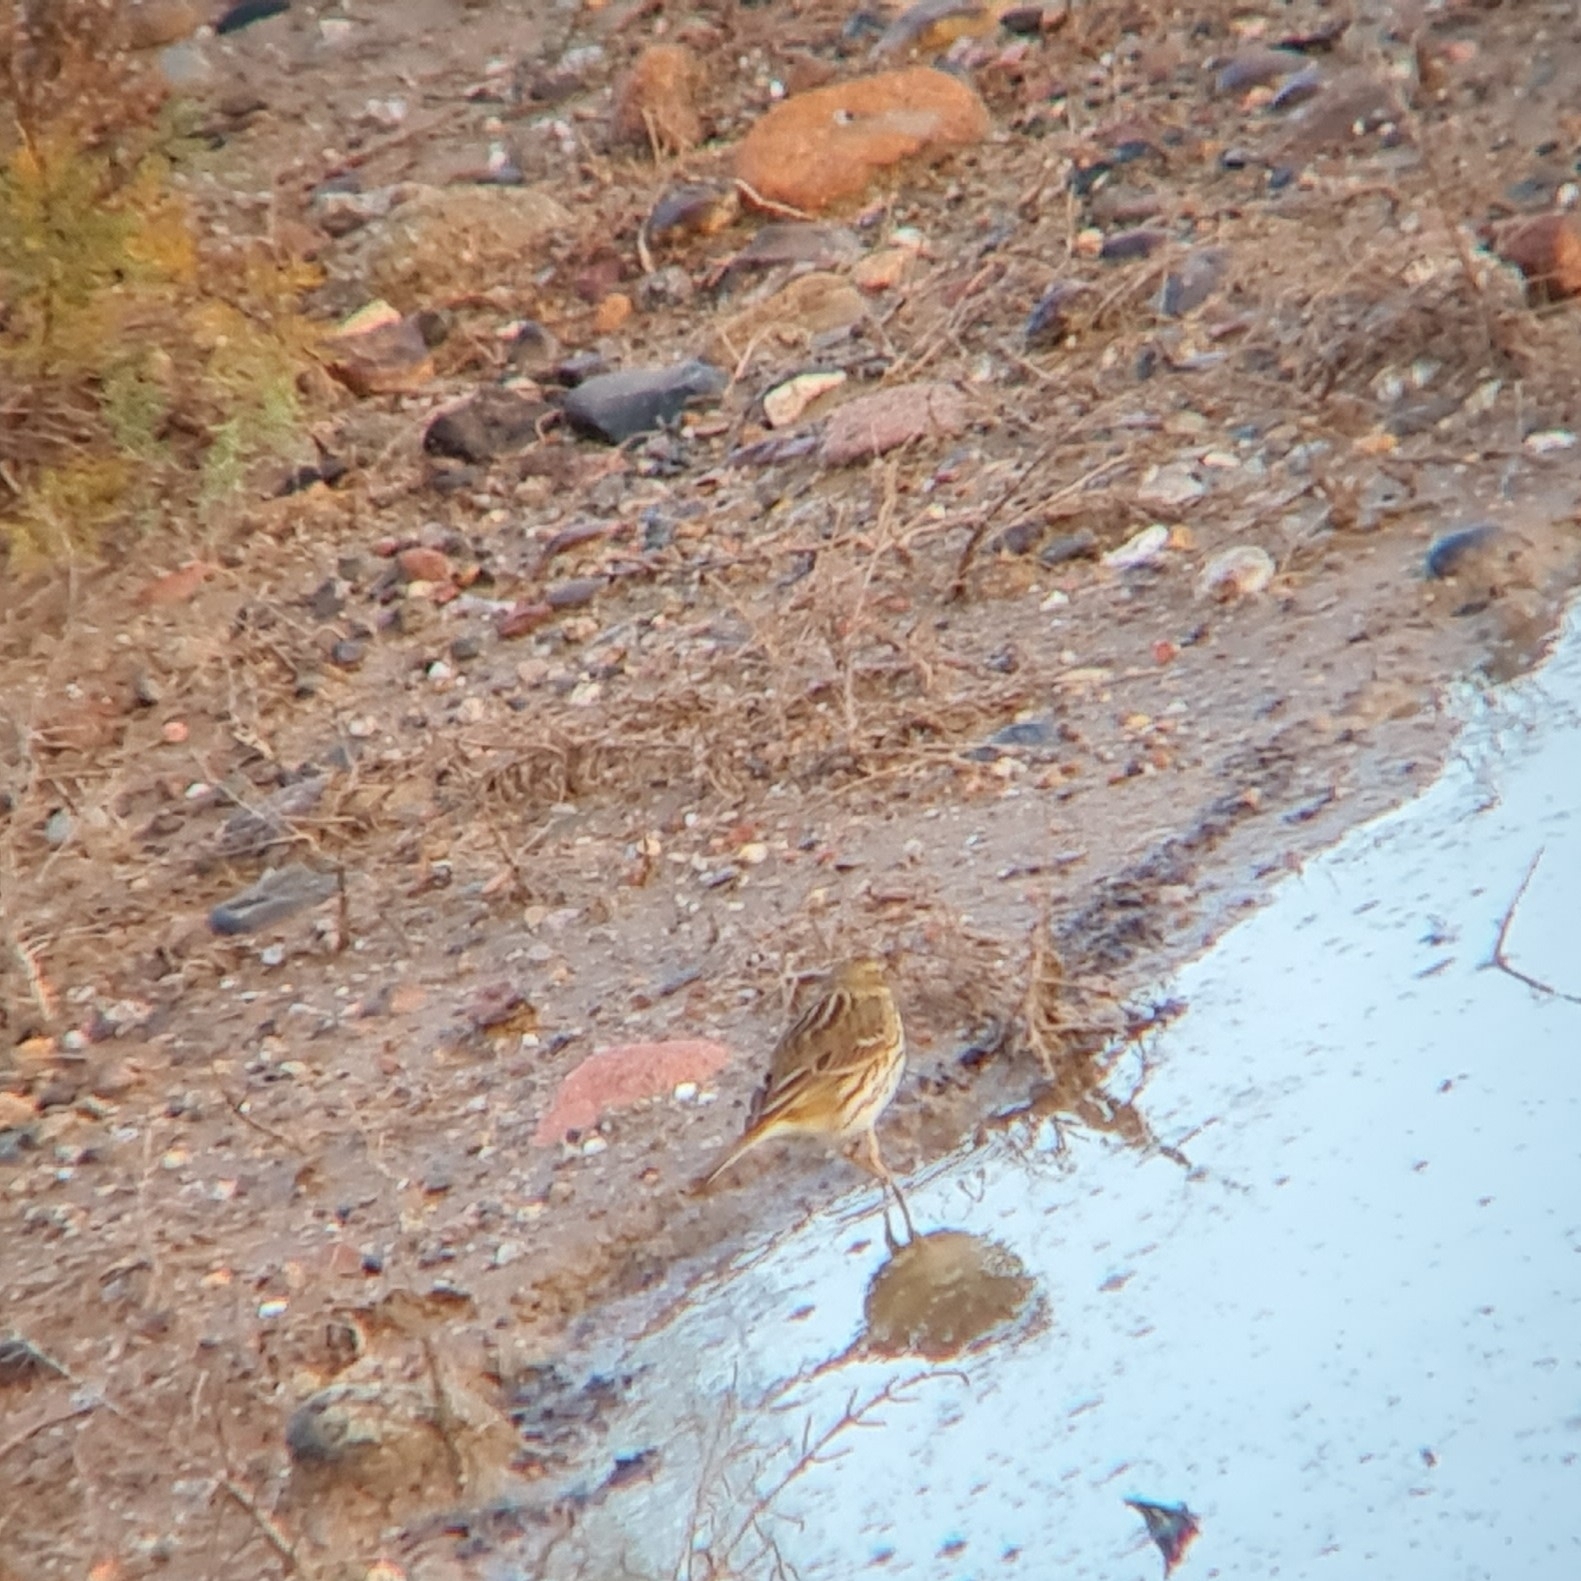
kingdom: Animalia
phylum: Chordata
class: Aves
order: Passeriformes
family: Motacillidae
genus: Anthus
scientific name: Anthus pratensis
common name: Meadow pipit
